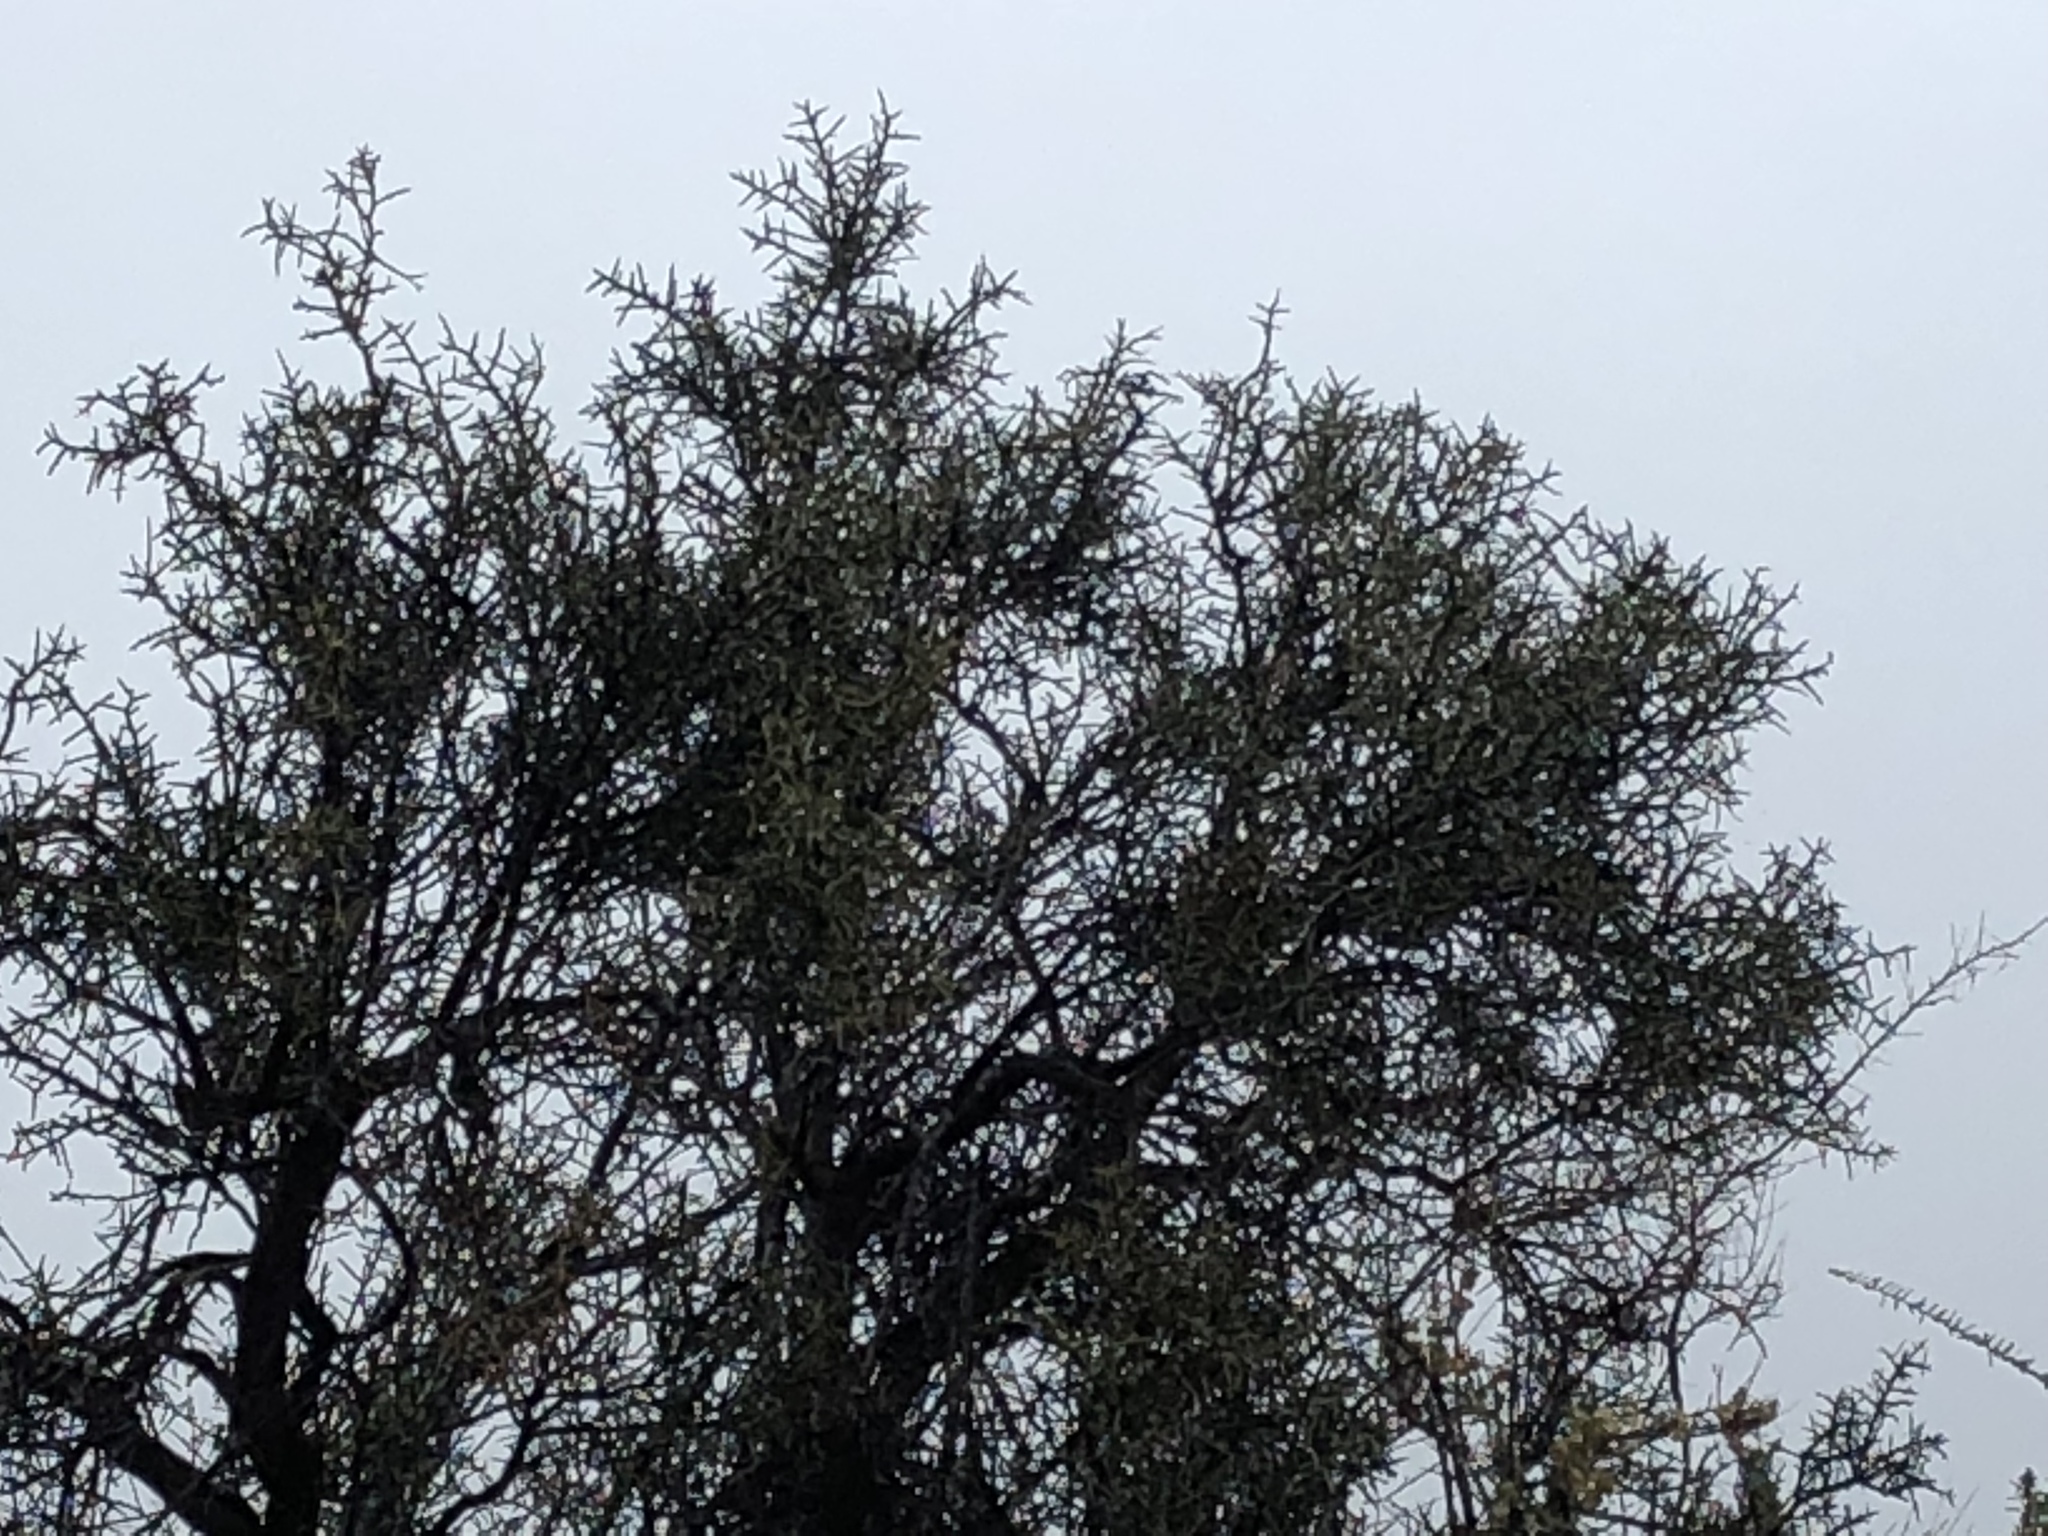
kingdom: Plantae
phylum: Tracheophyta
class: Magnoliopsida
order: Brassicales
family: Koeberliniaceae
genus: Koeberlinia
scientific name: Koeberlinia spinosa
